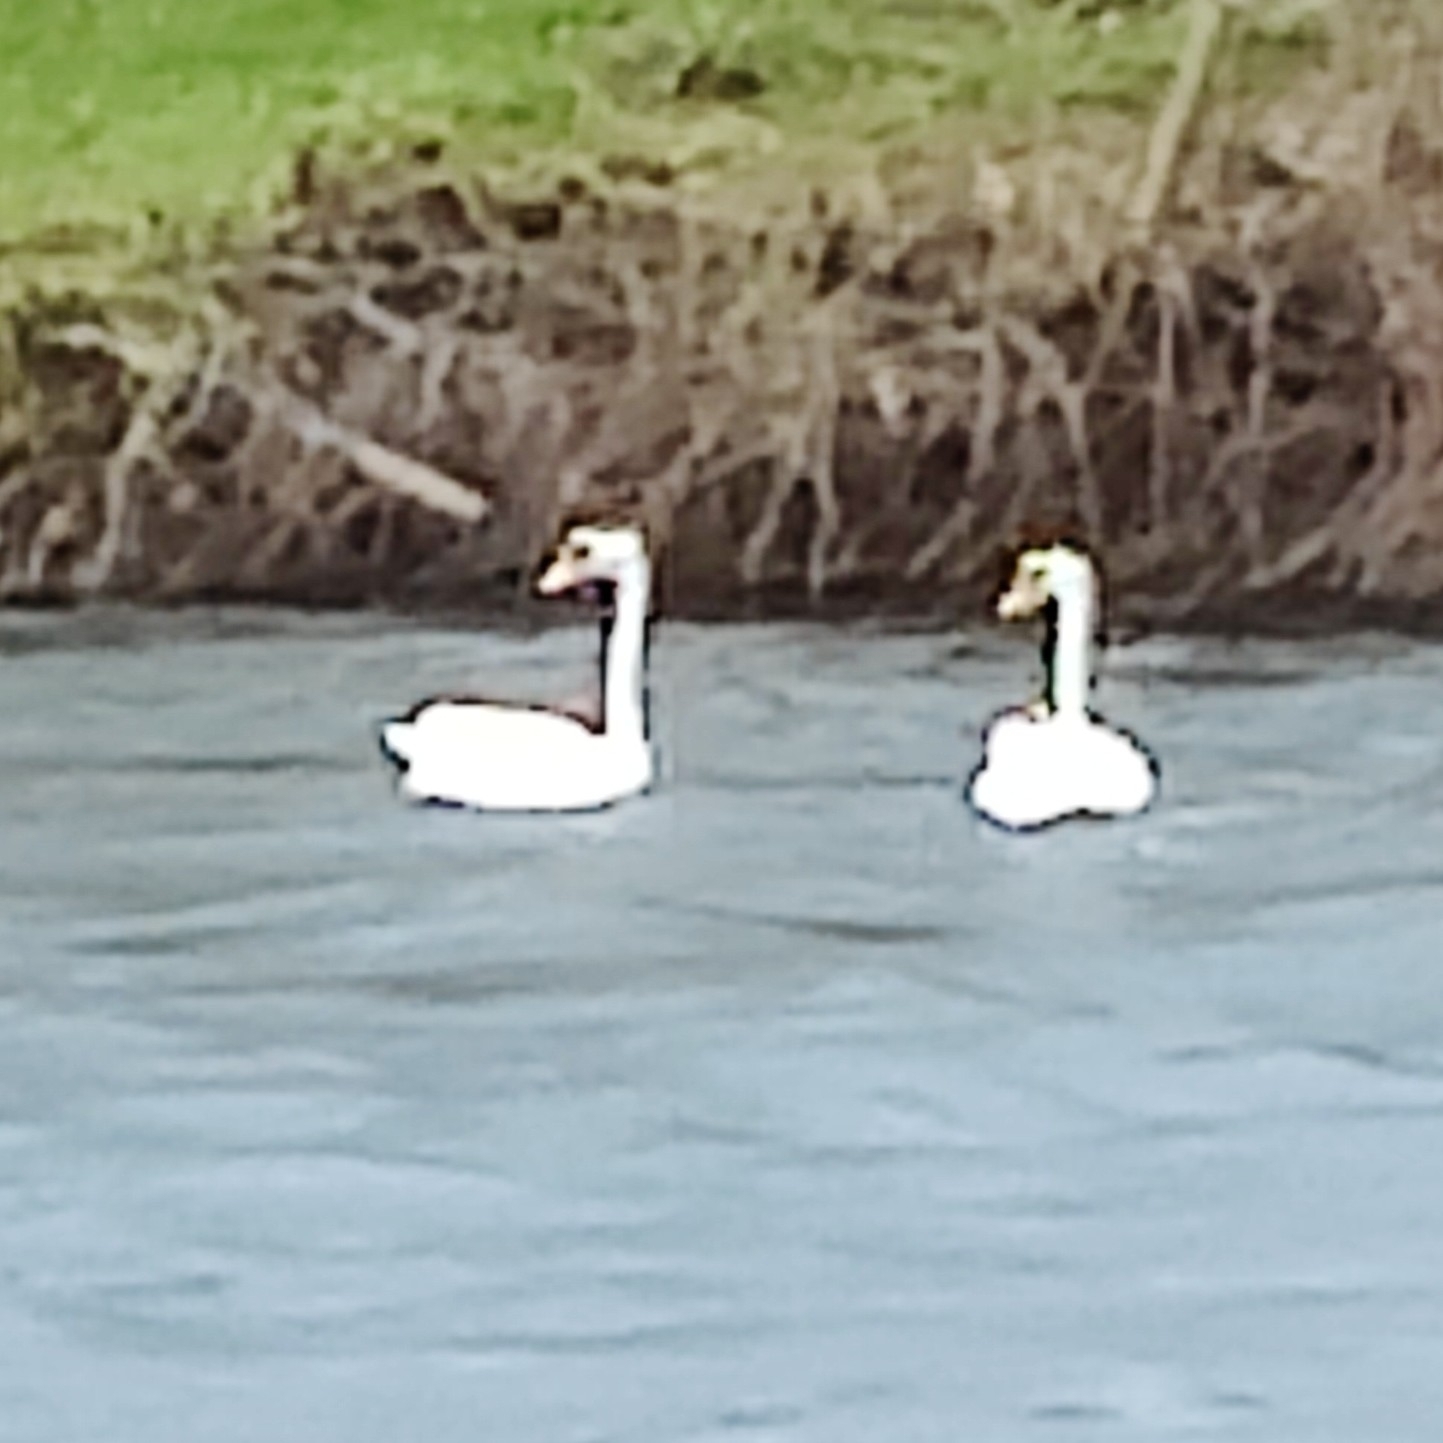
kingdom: Animalia
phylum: Chordata
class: Aves
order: Anseriformes
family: Anatidae
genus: Cygnus
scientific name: Cygnus olor
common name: Mute swan
